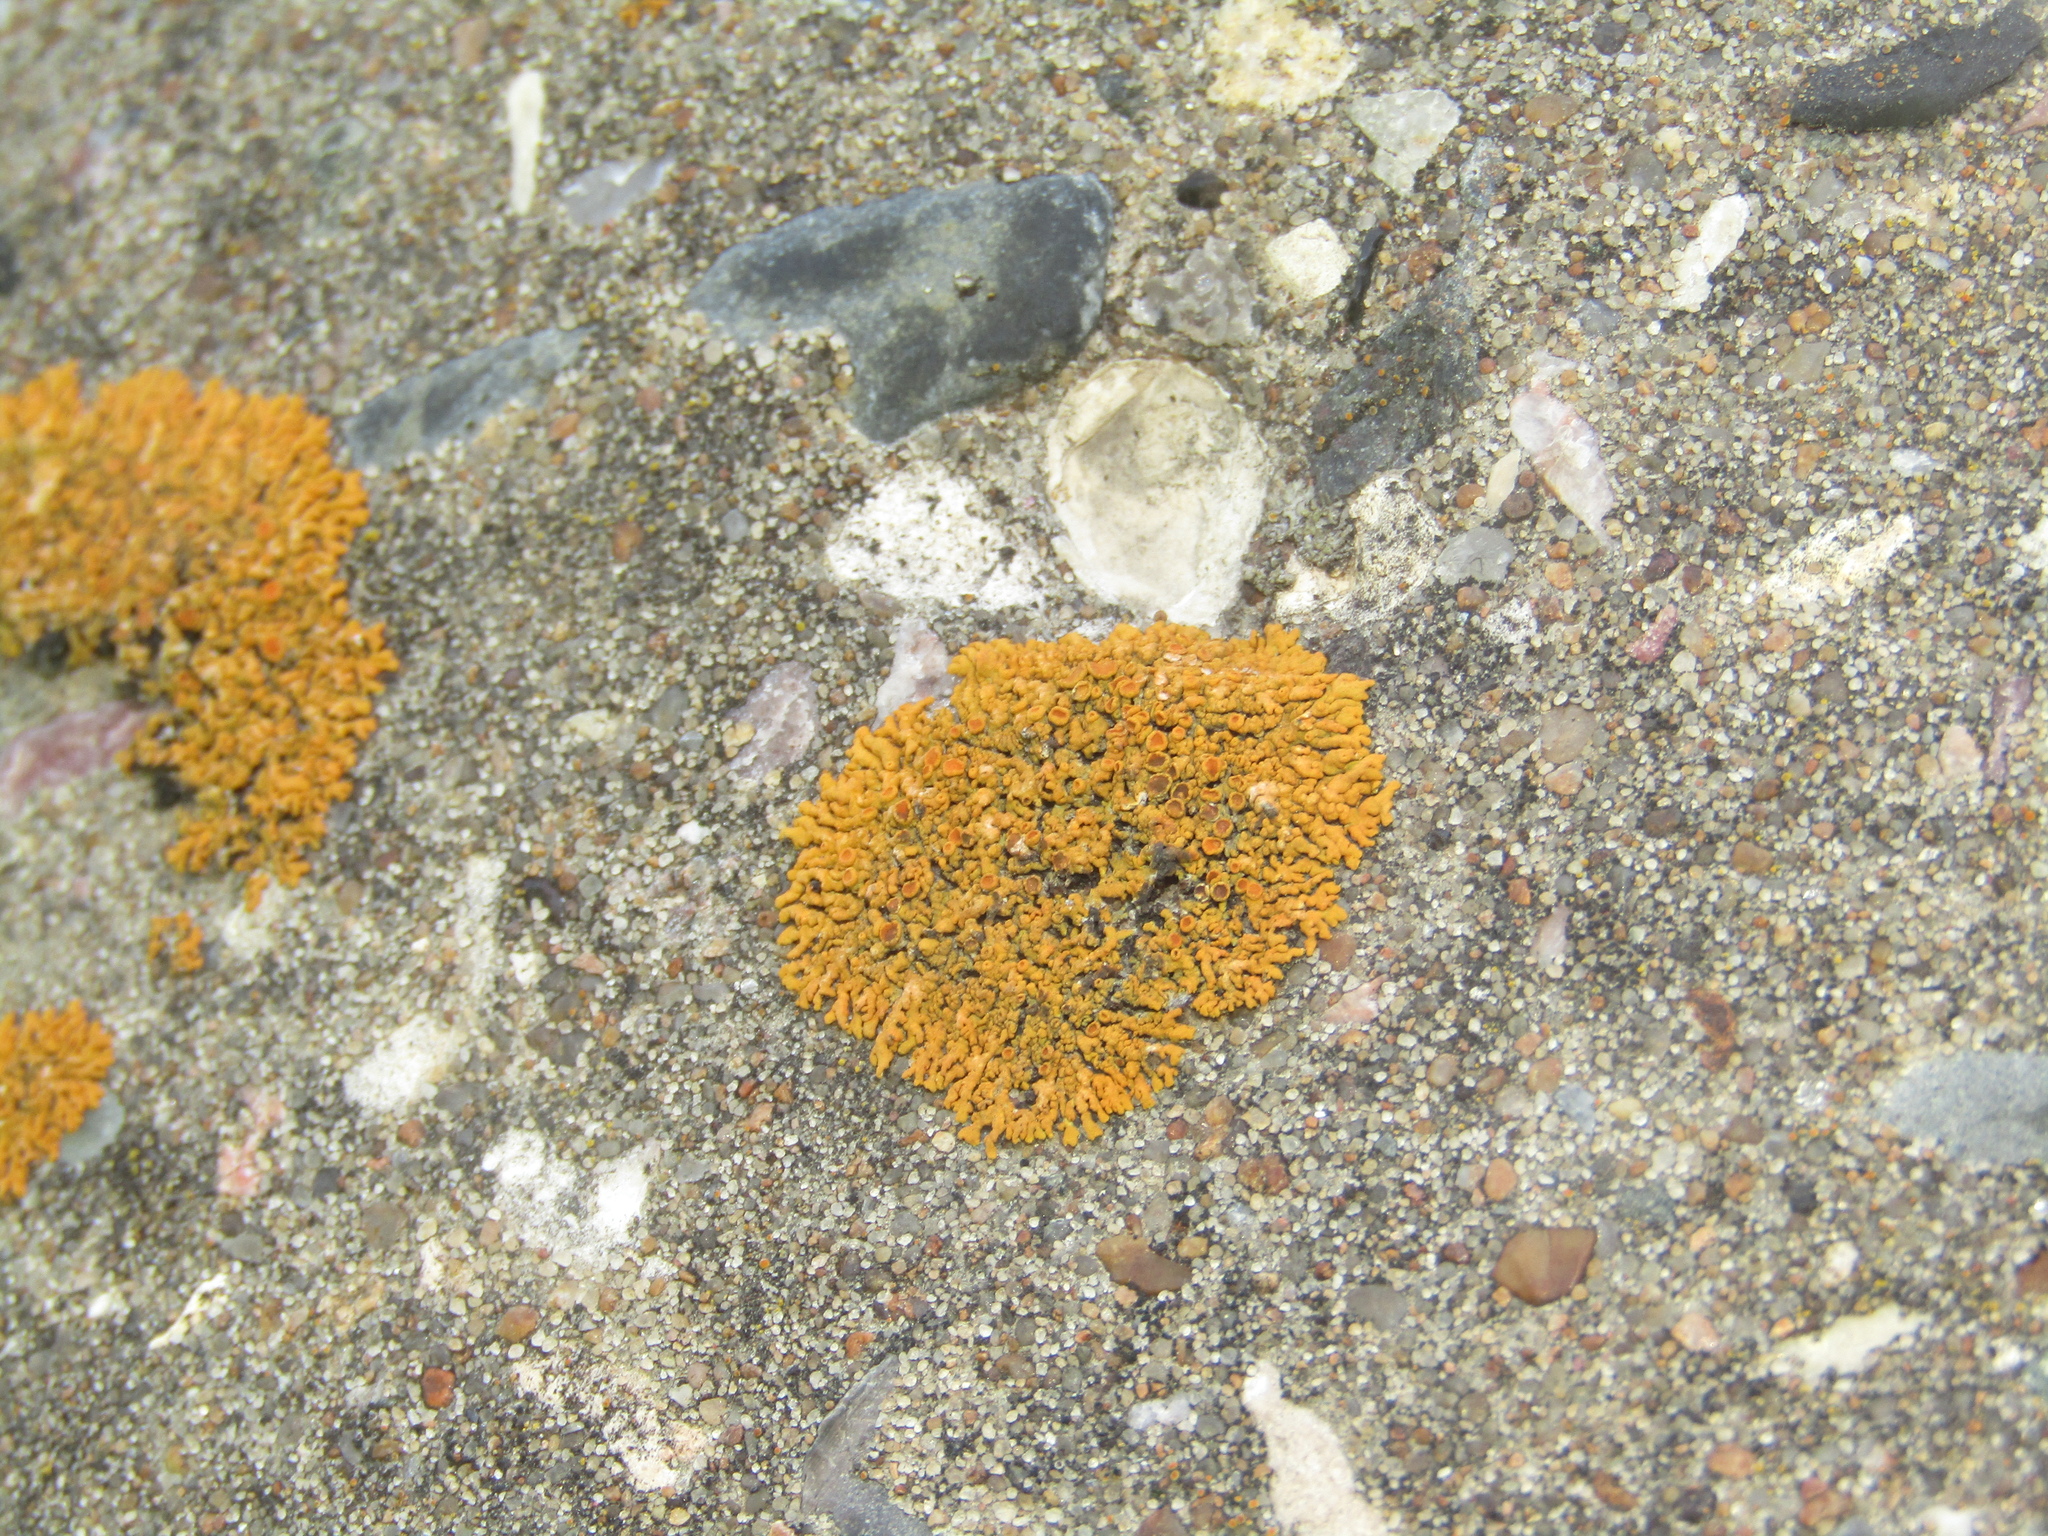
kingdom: Fungi
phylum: Ascomycota
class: Lecanoromycetes
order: Teloschistales
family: Teloschistaceae
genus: Xanthoria
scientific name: Xanthoria elegans
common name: Elegant sunburst lichen
